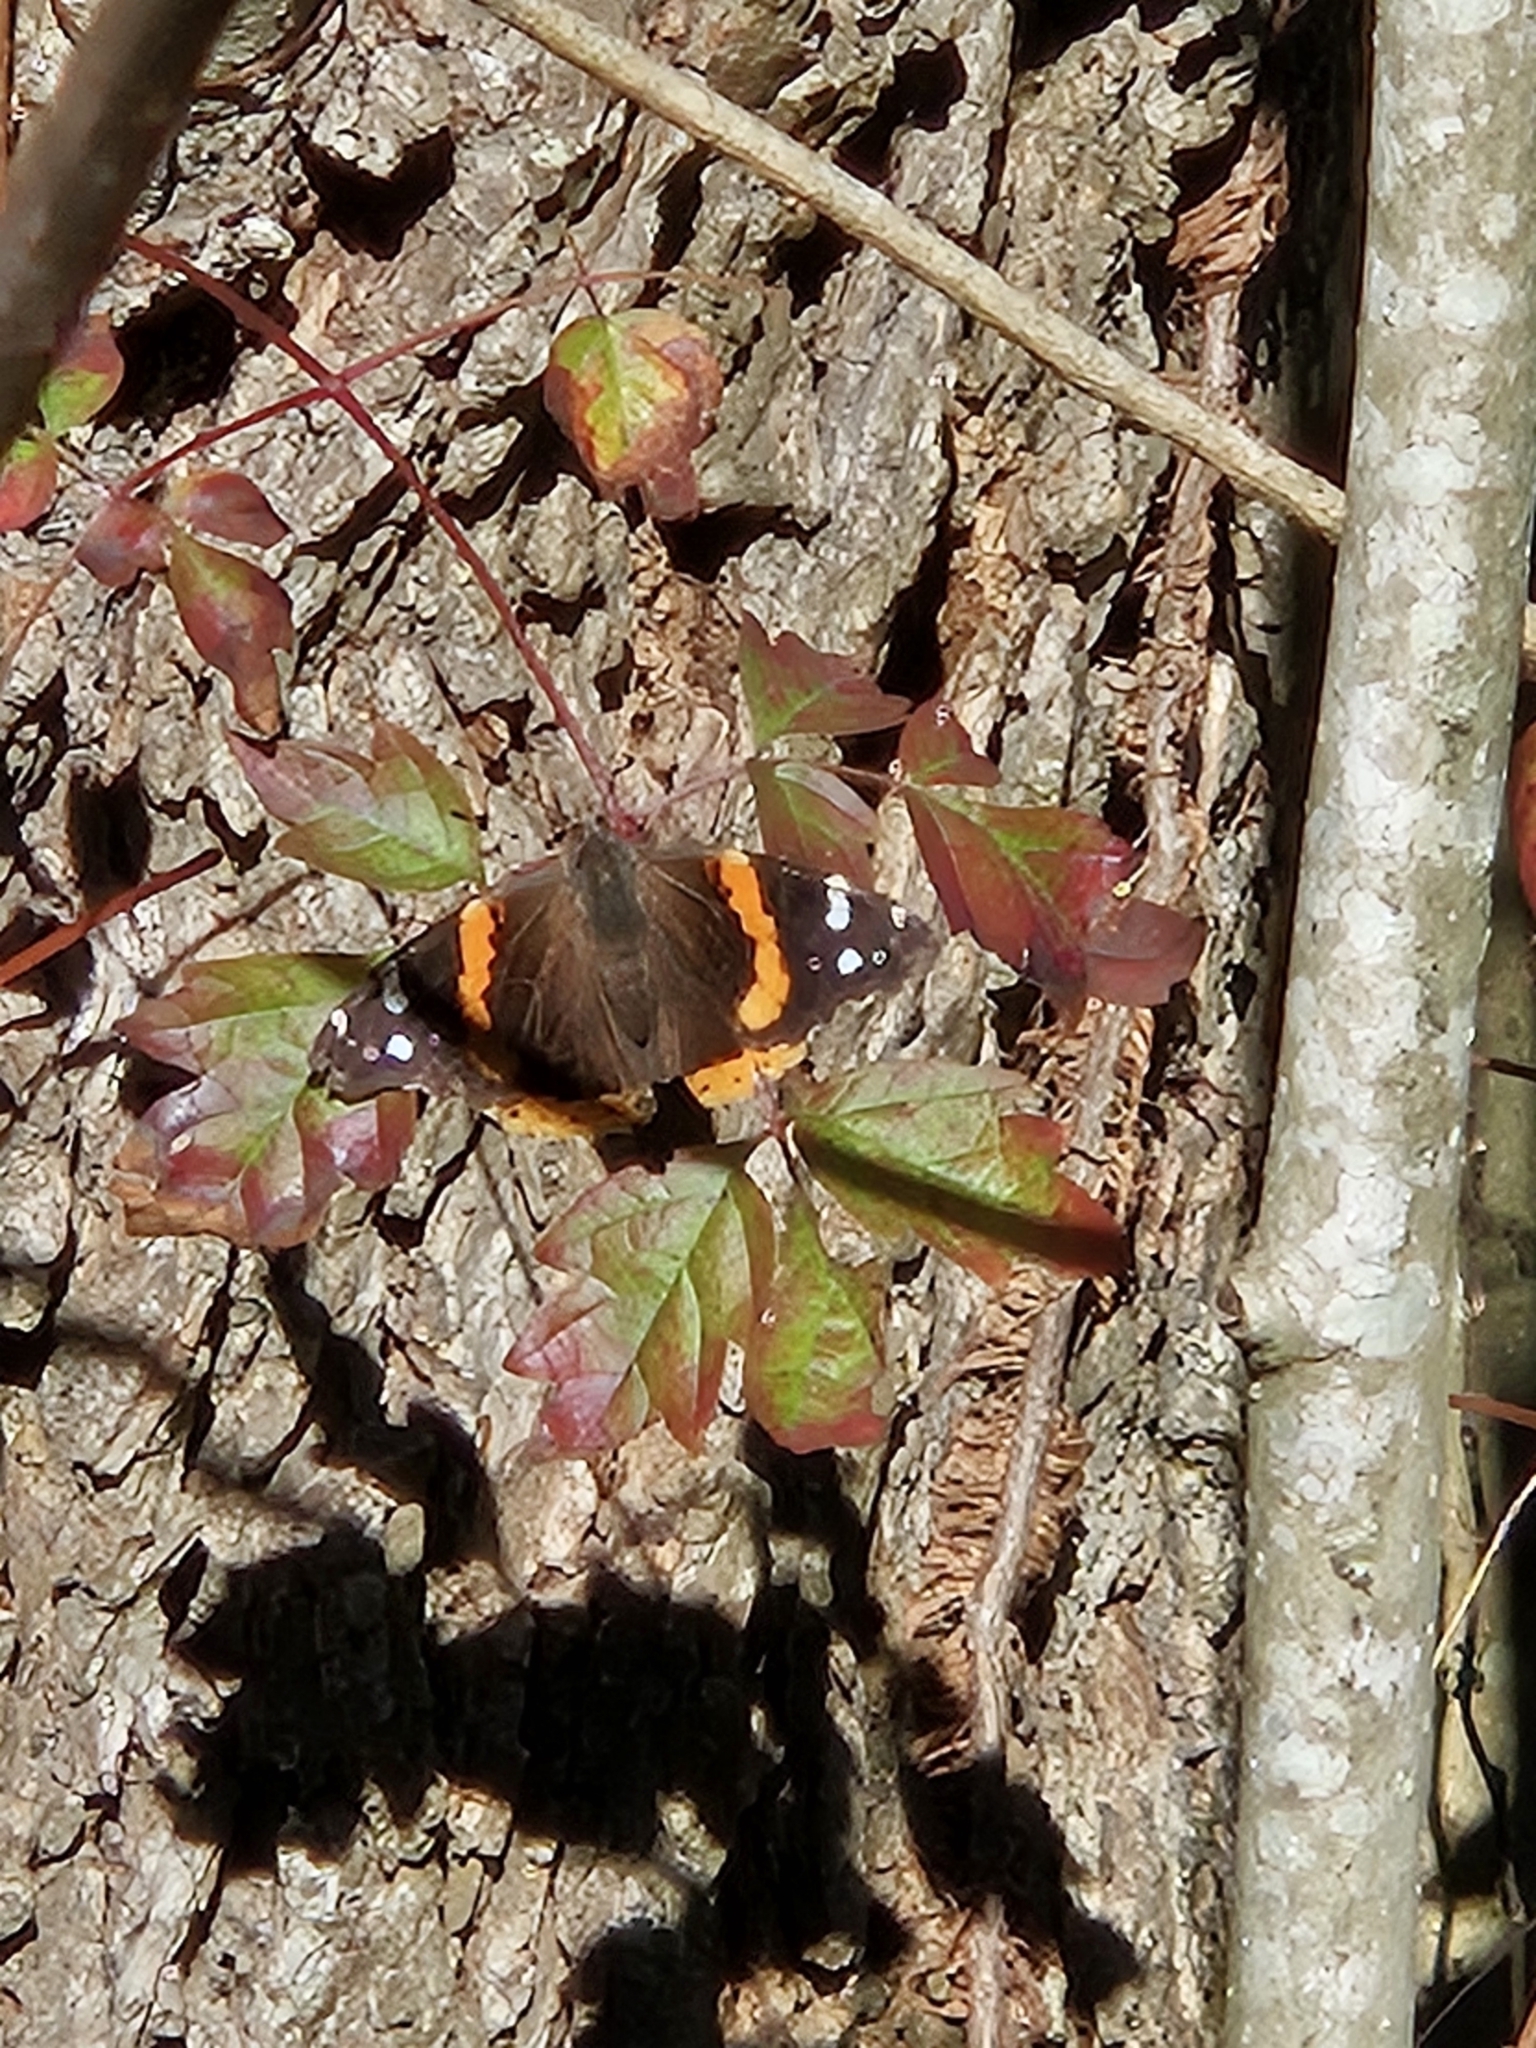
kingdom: Animalia
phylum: Arthropoda
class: Insecta
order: Lepidoptera
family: Nymphalidae
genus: Vanessa
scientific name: Vanessa atalanta
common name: Red admiral
